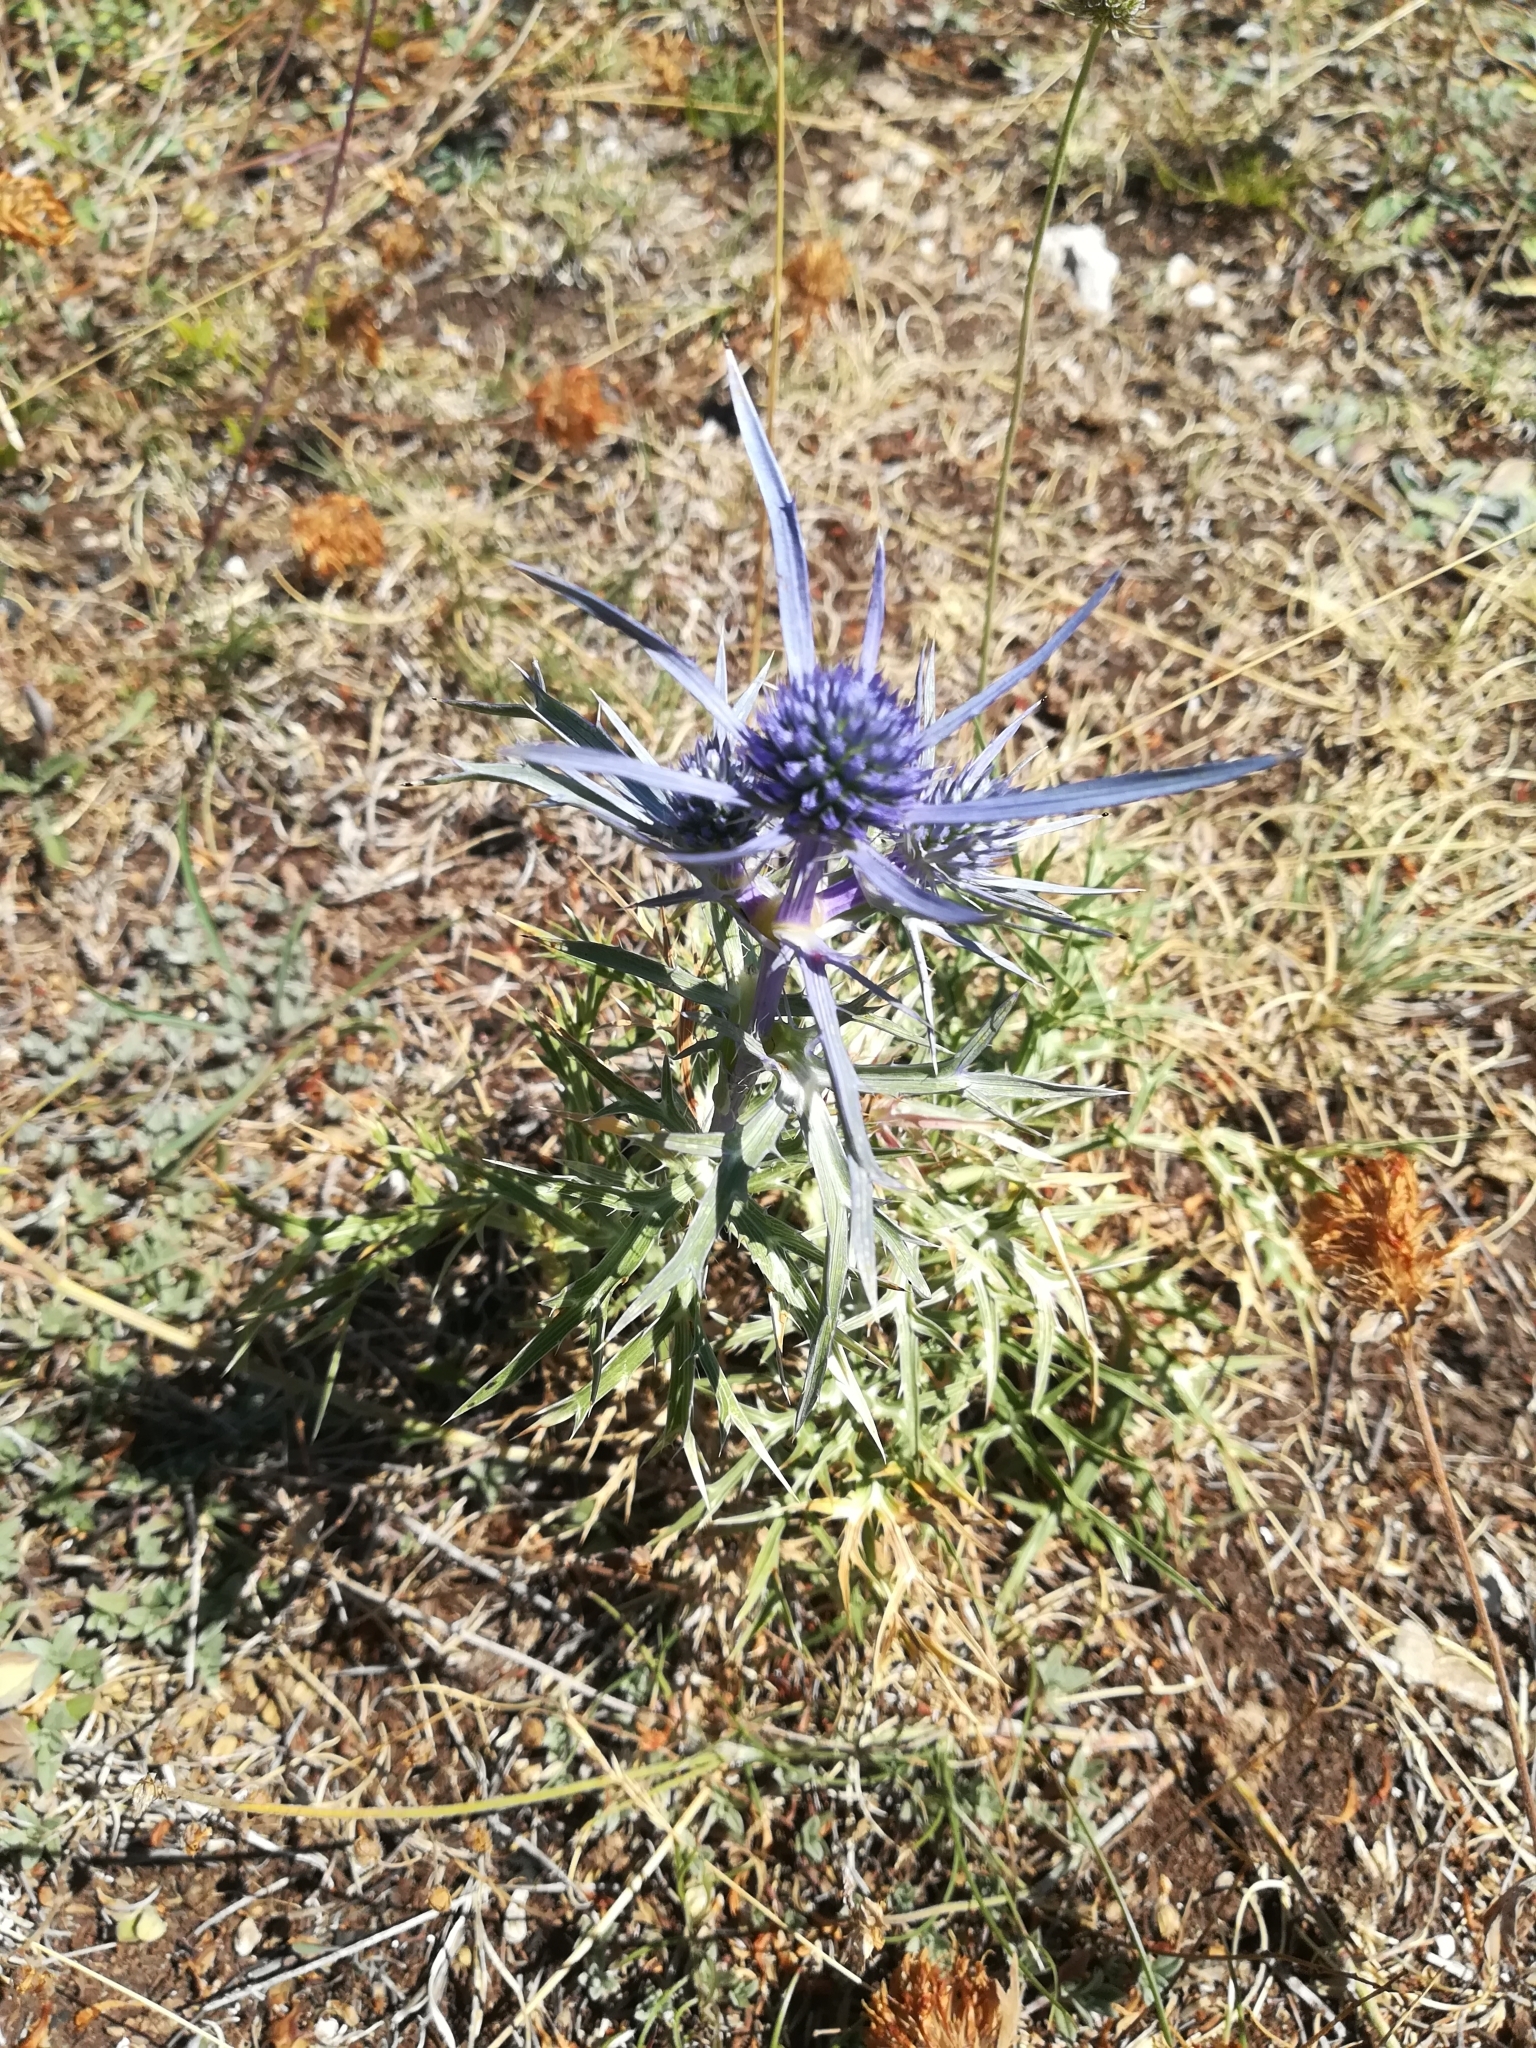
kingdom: Plantae
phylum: Tracheophyta
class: Magnoliopsida
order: Apiales
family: Apiaceae
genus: Eryngium
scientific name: Eryngium amethystinum
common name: Amethyst eryngo
